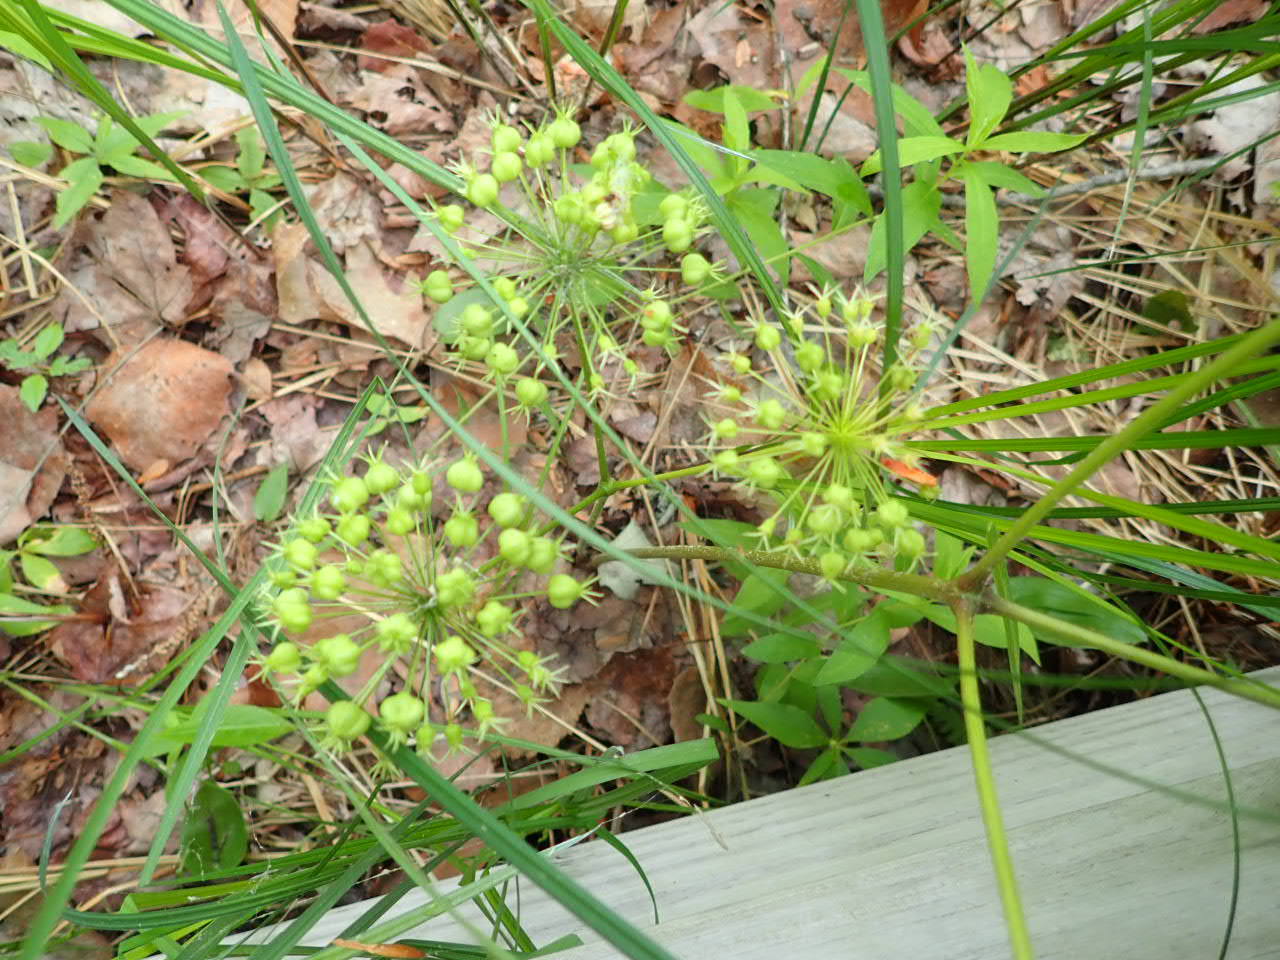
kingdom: Plantae
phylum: Tracheophyta
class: Magnoliopsida
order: Apiales
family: Araliaceae
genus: Aralia
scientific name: Aralia nudicaulis
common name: Wild sarsaparilla
